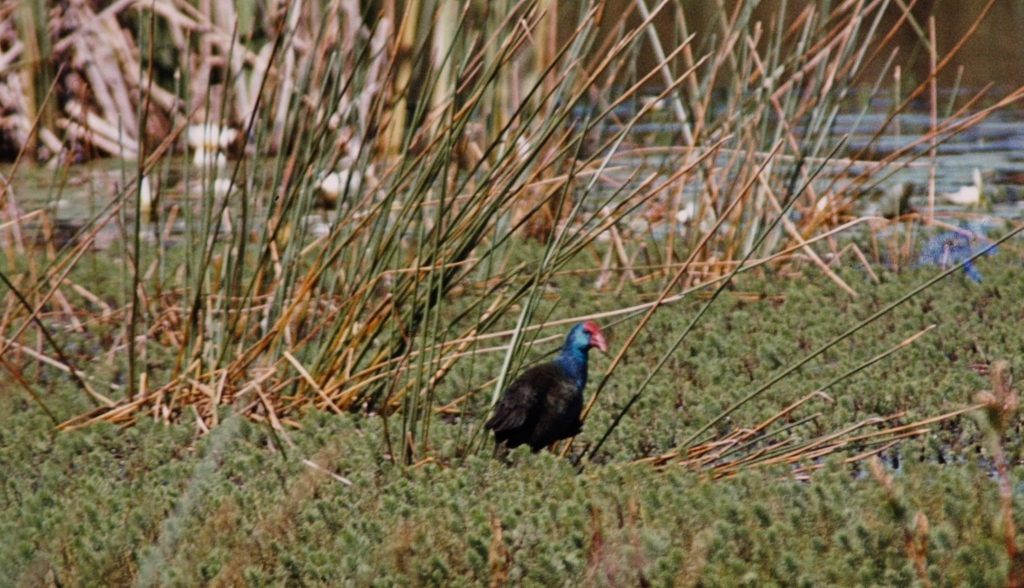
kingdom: Animalia
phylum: Chordata
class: Aves
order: Gruiformes
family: Rallidae
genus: Porphyrio
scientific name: Porphyrio porphyrio
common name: Purple swamphen
